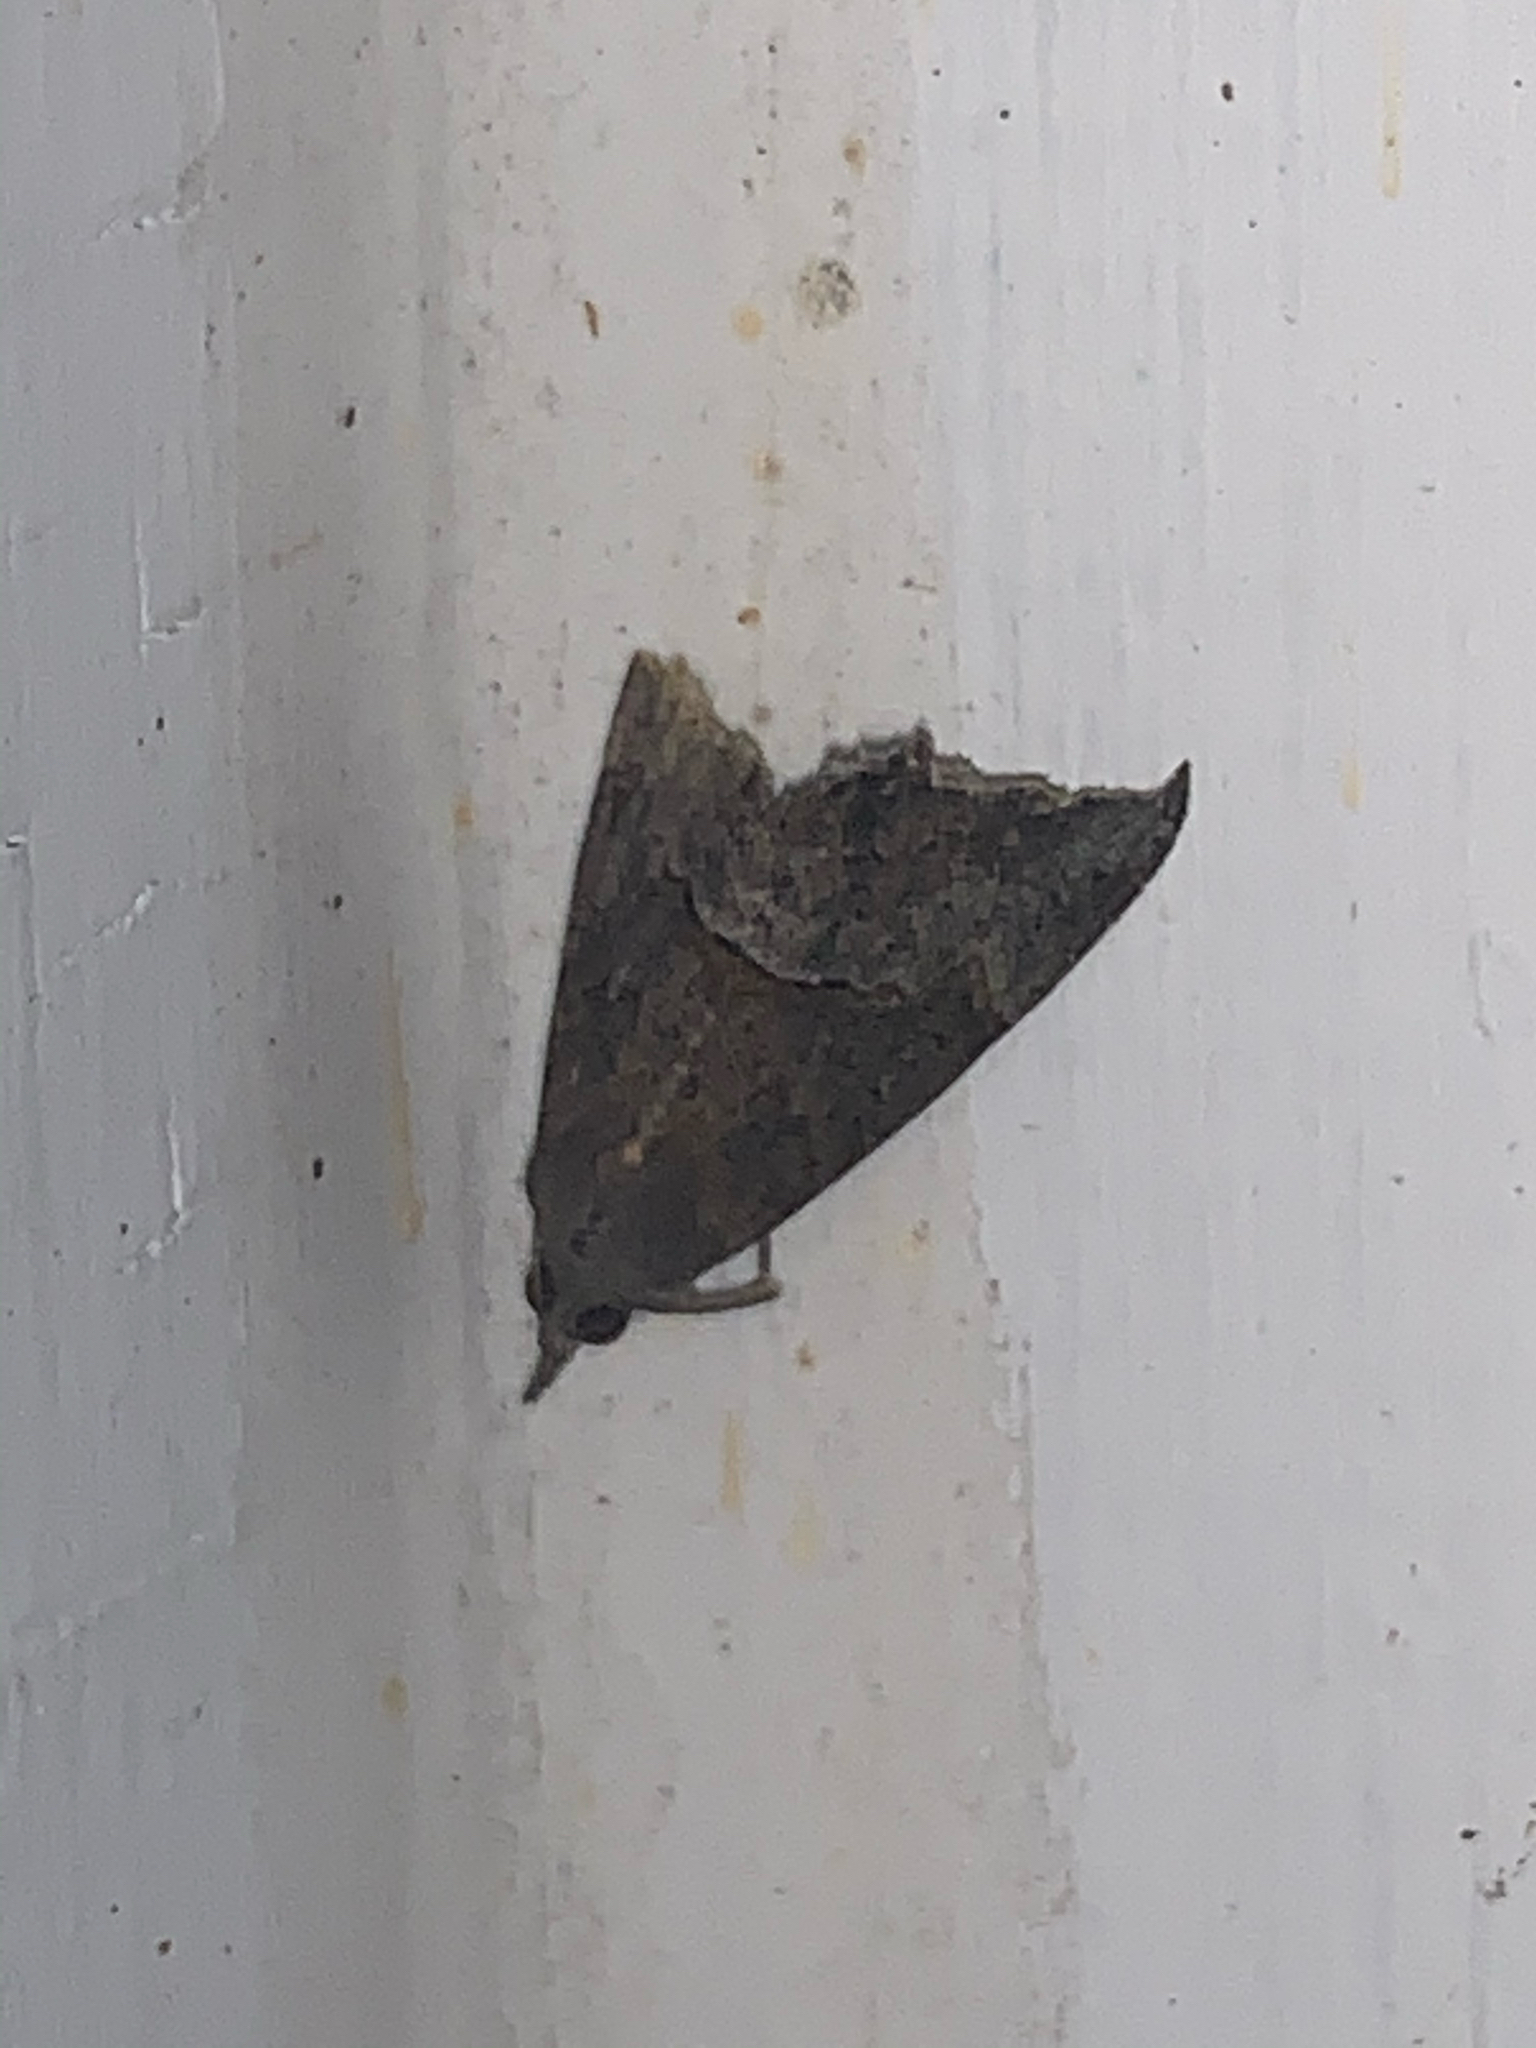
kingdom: Animalia
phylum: Arthropoda
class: Insecta
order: Lepidoptera
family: Erebidae
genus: Hypena
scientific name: Hypena scabra
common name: Green cloverworm
